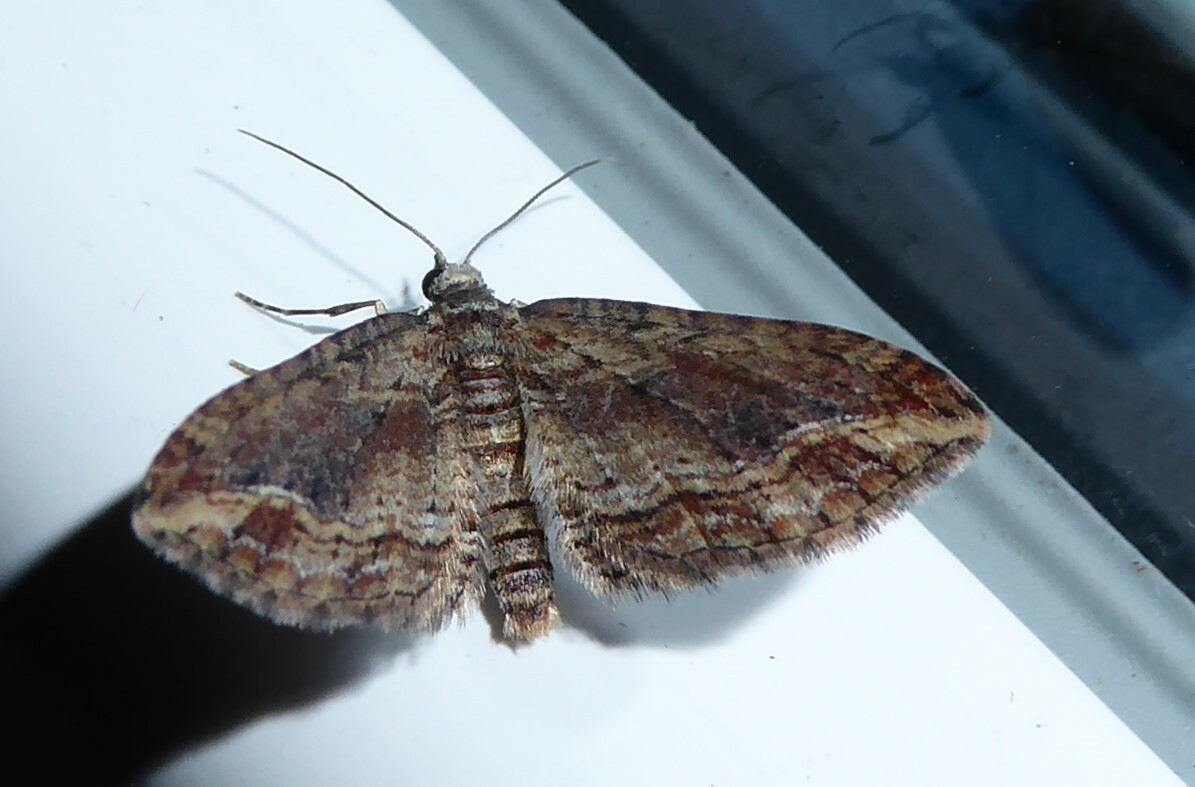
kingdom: Animalia
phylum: Arthropoda
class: Insecta
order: Lepidoptera
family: Geometridae
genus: Chloroclystis
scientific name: Chloroclystis filata
